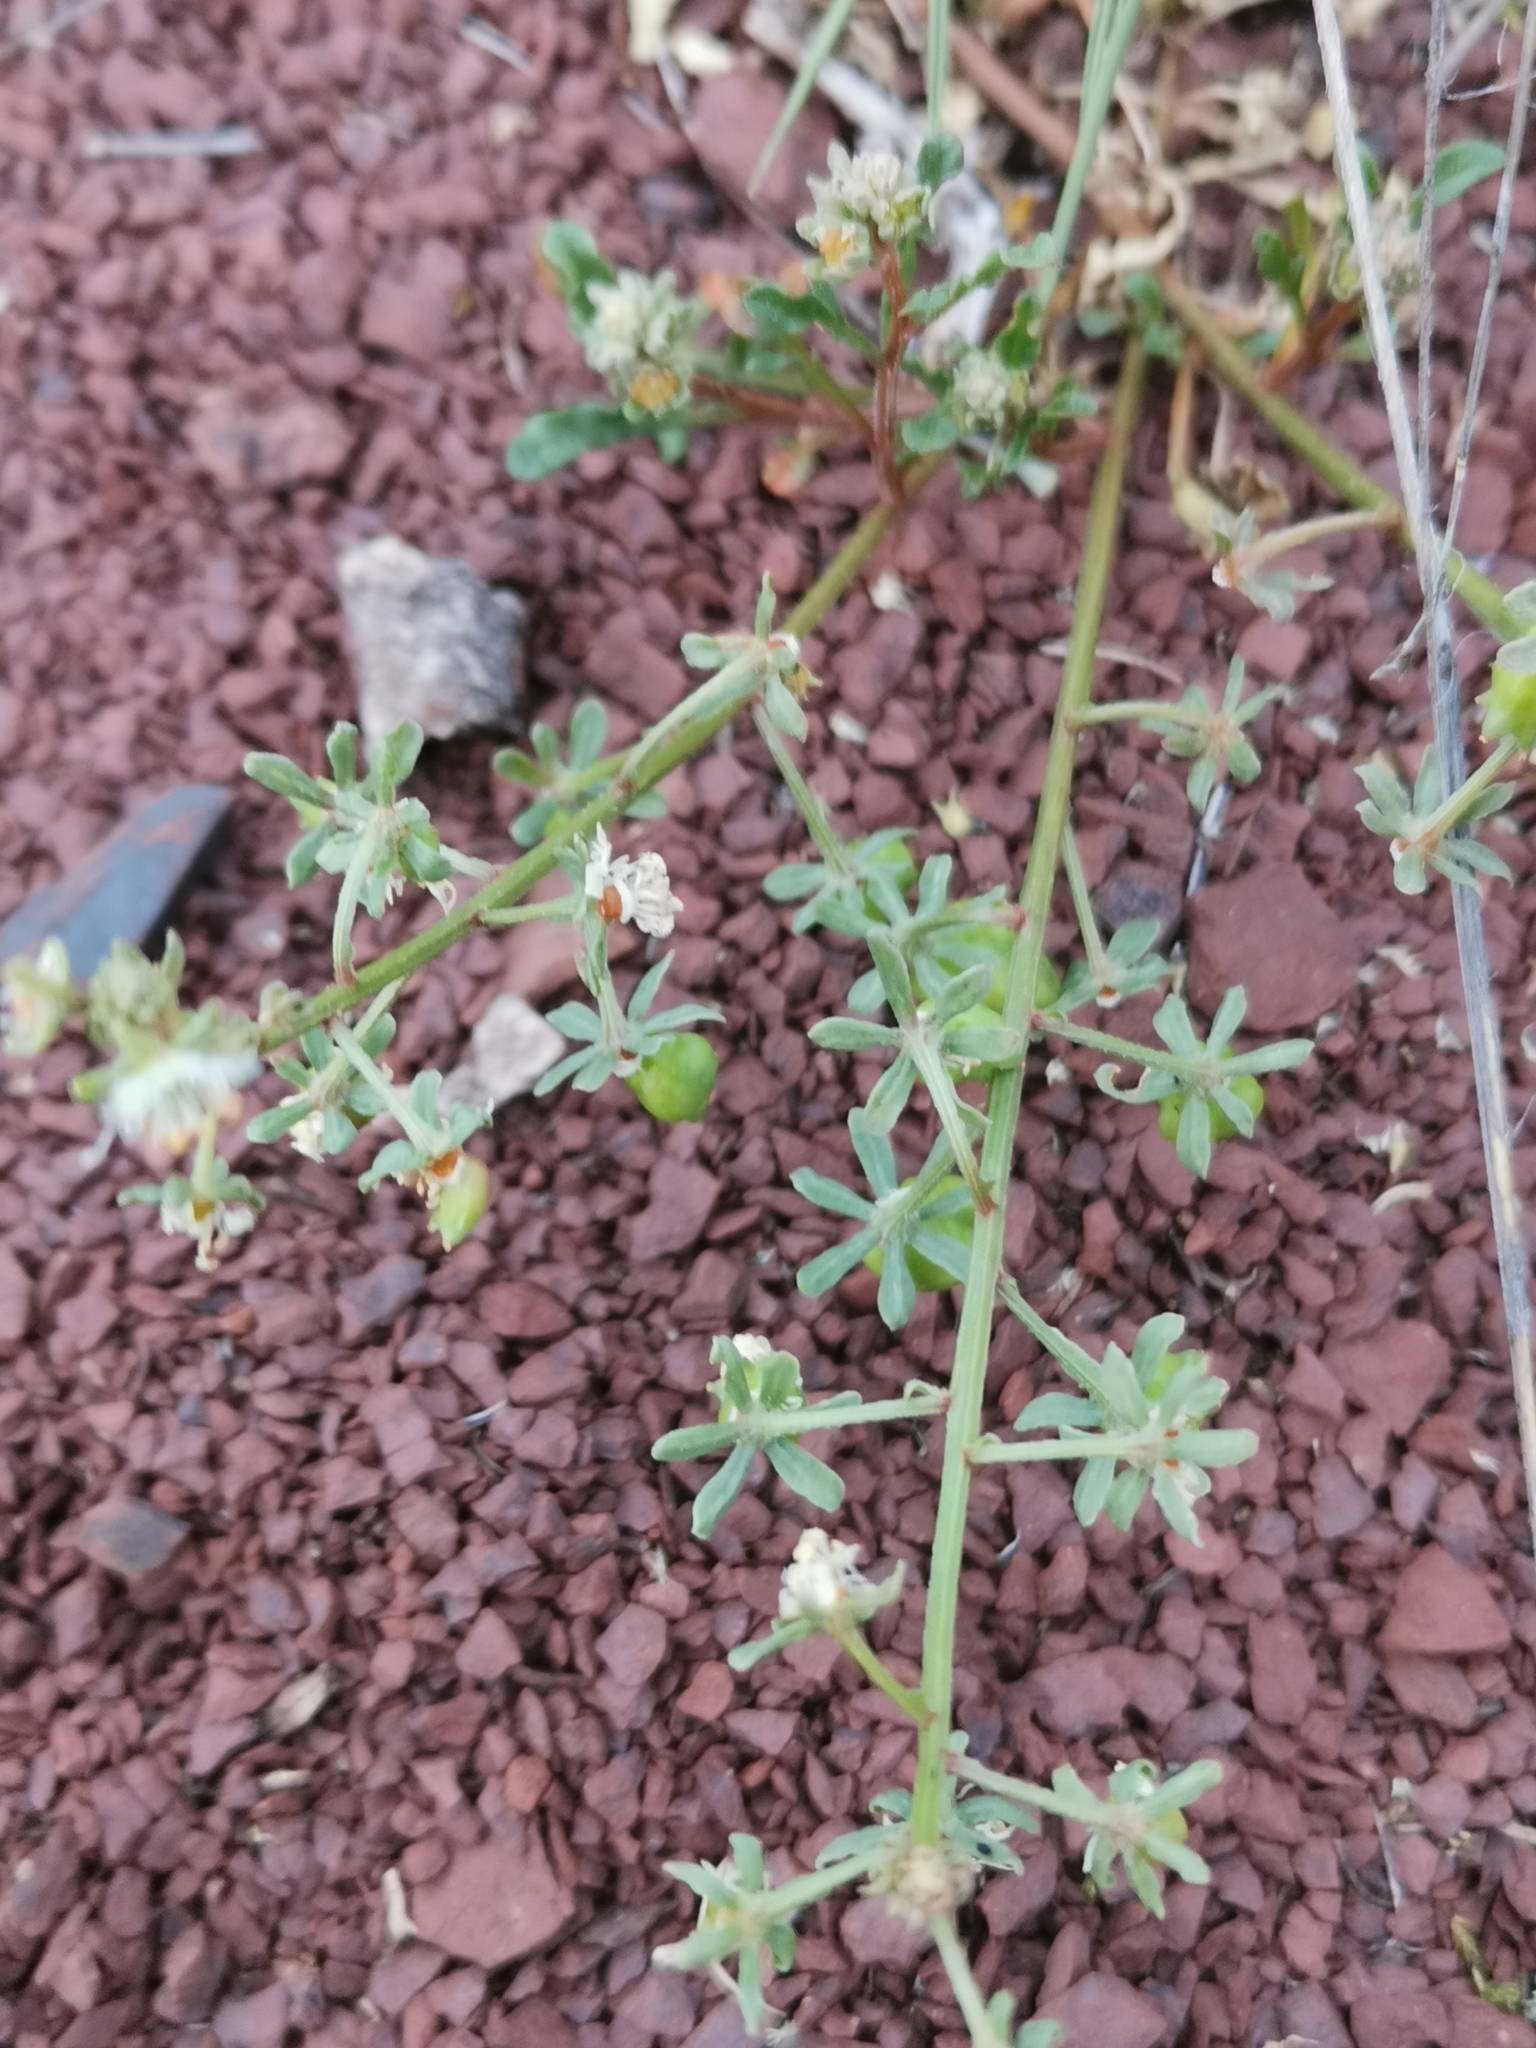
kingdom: Plantae
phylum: Tracheophyta
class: Magnoliopsida
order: Brassicales
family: Resedaceae
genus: Reseda
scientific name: Reseda phyteuma
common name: Corn mignonette
